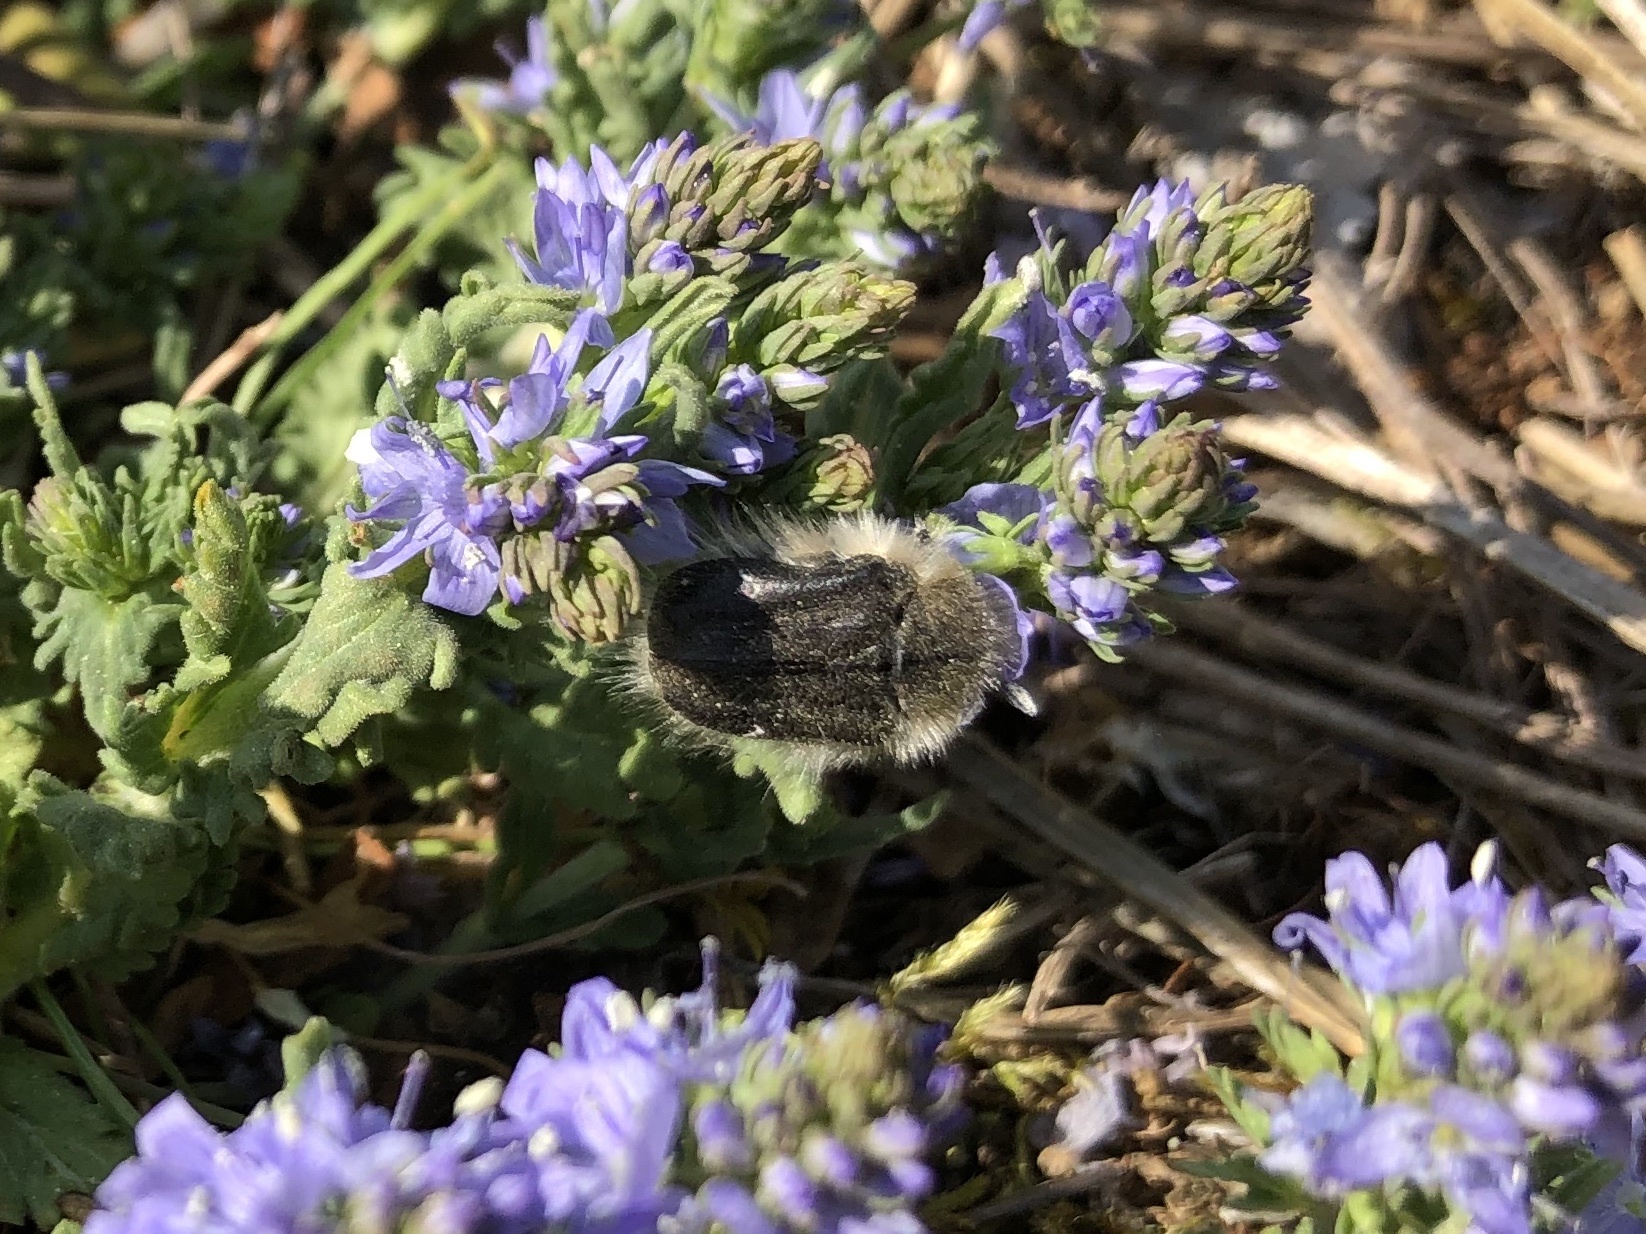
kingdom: Animalia
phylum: Arthropoda
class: Insecta
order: Coleoptera
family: Scarabaeidae
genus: Tropinota
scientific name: Tropinota hirta
